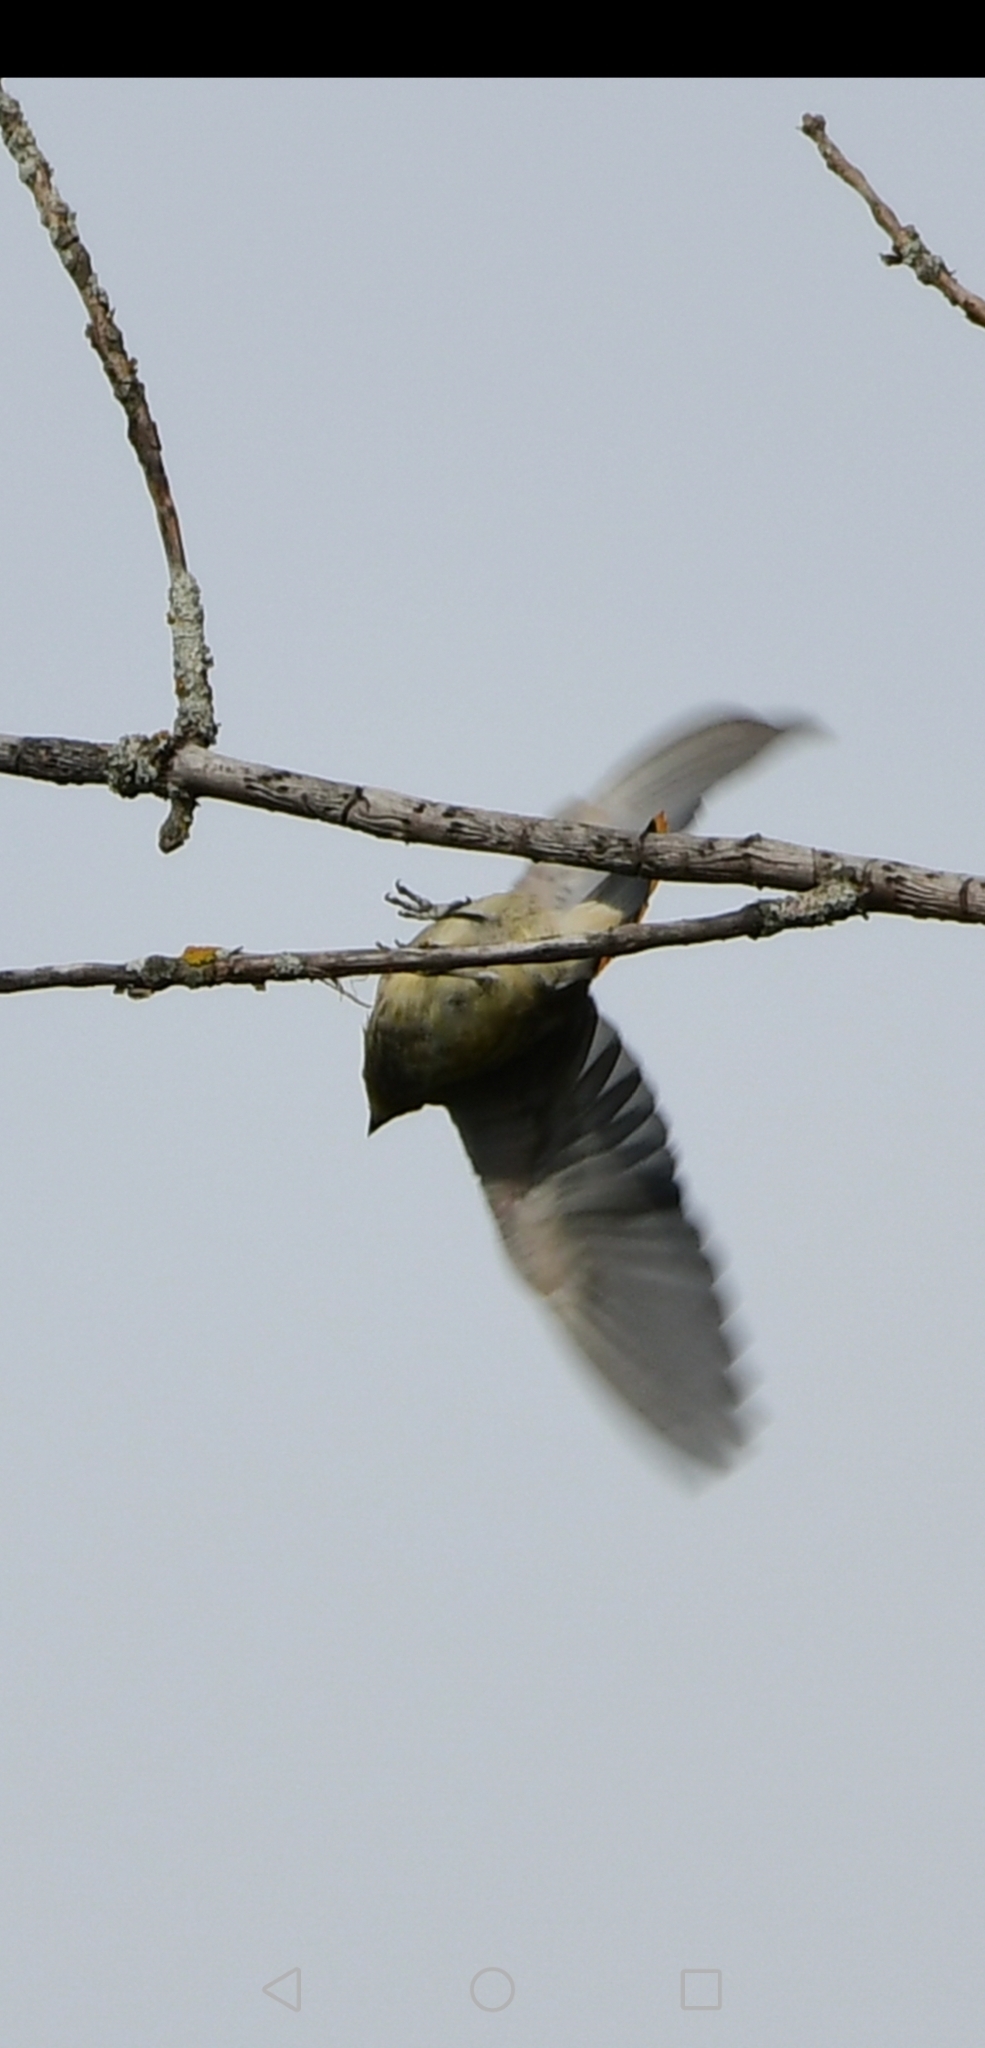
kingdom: Animalia
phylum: Chordata
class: Aves
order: Passeriformes
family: Parulidae
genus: Setophaga
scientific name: Setophaga coronata
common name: Myrtle warbler
